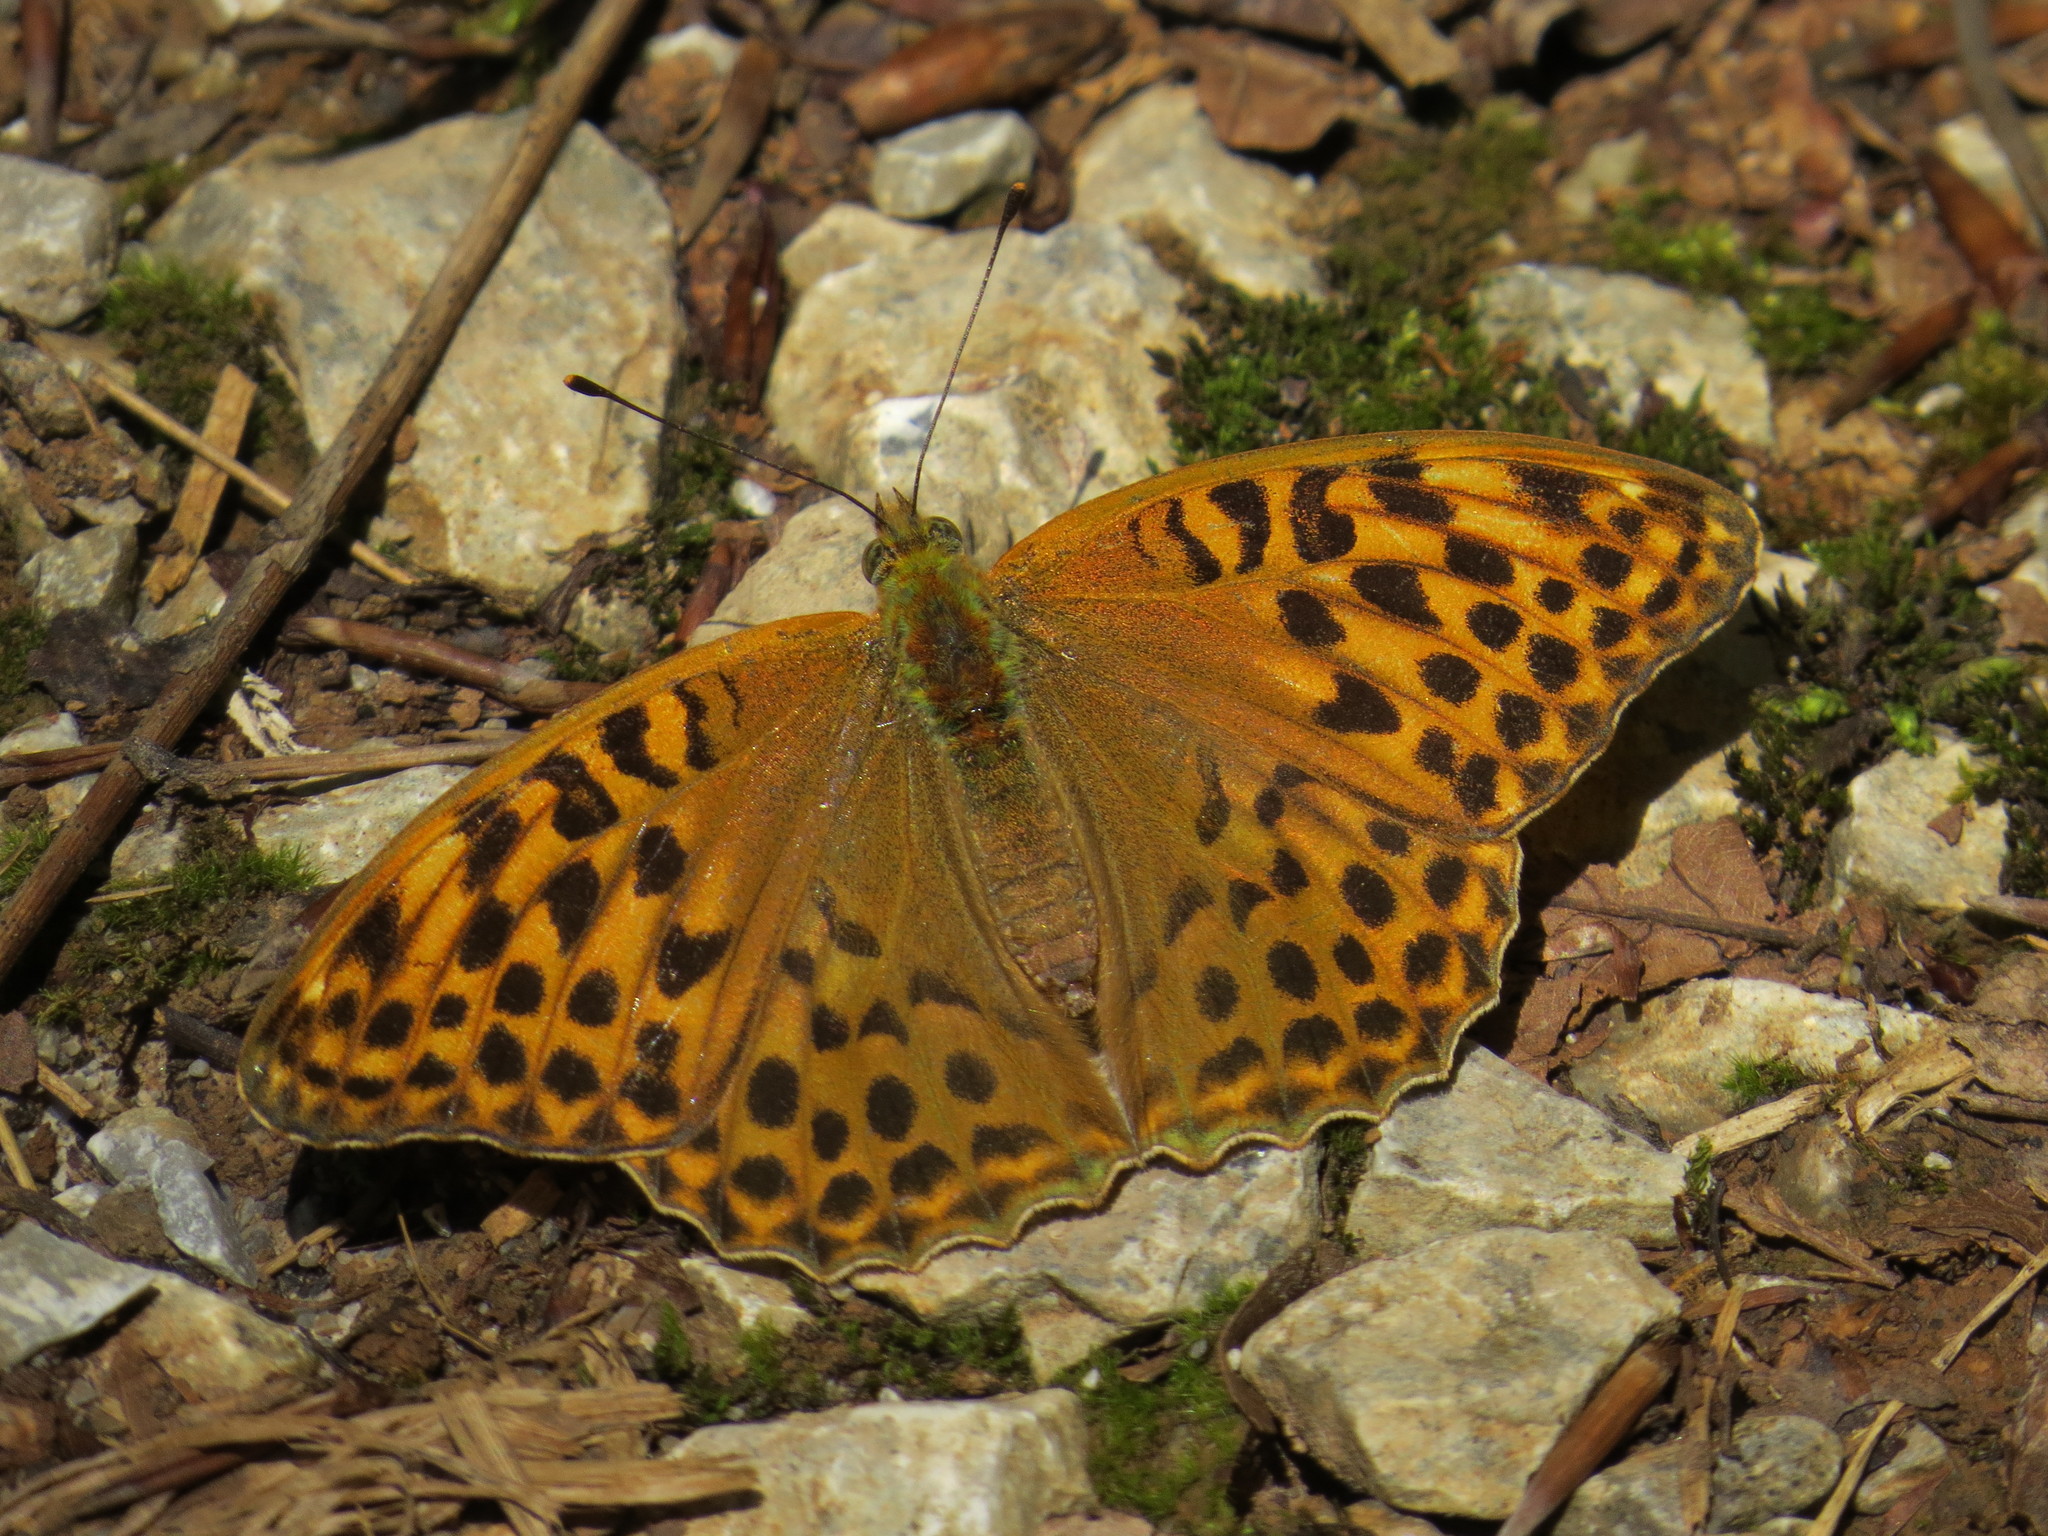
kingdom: Animalia
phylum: Arthropoda
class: Insecta
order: Lepidoptera
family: Nymphalidae
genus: Argynnis
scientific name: Argynnis paphia
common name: Silver-washed fritillary
